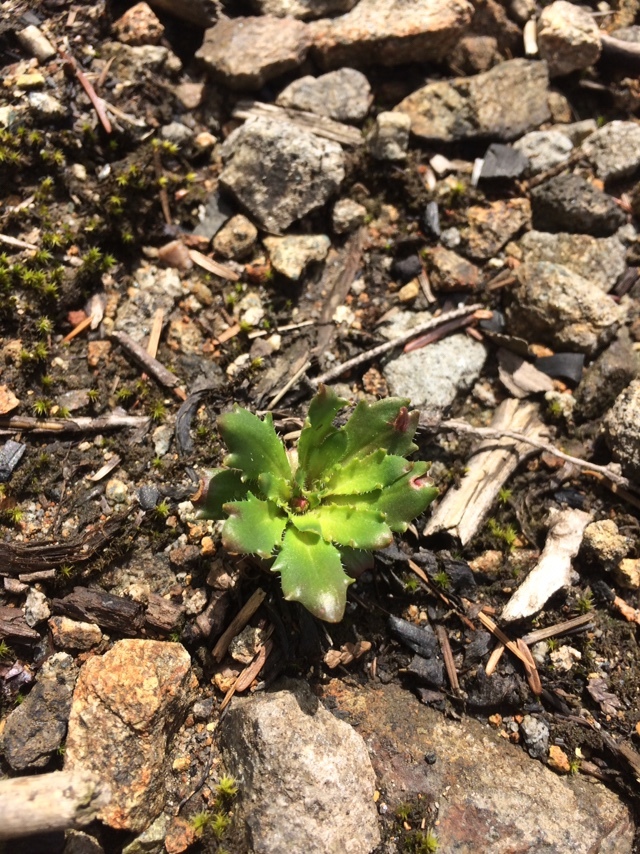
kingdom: Plantae
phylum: Tracheophyta
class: Magnoliopsida
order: Saxifragales
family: Saxifragaceae
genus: Micranthes
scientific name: Micranthes ferruginea
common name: Rusty saxifrage
